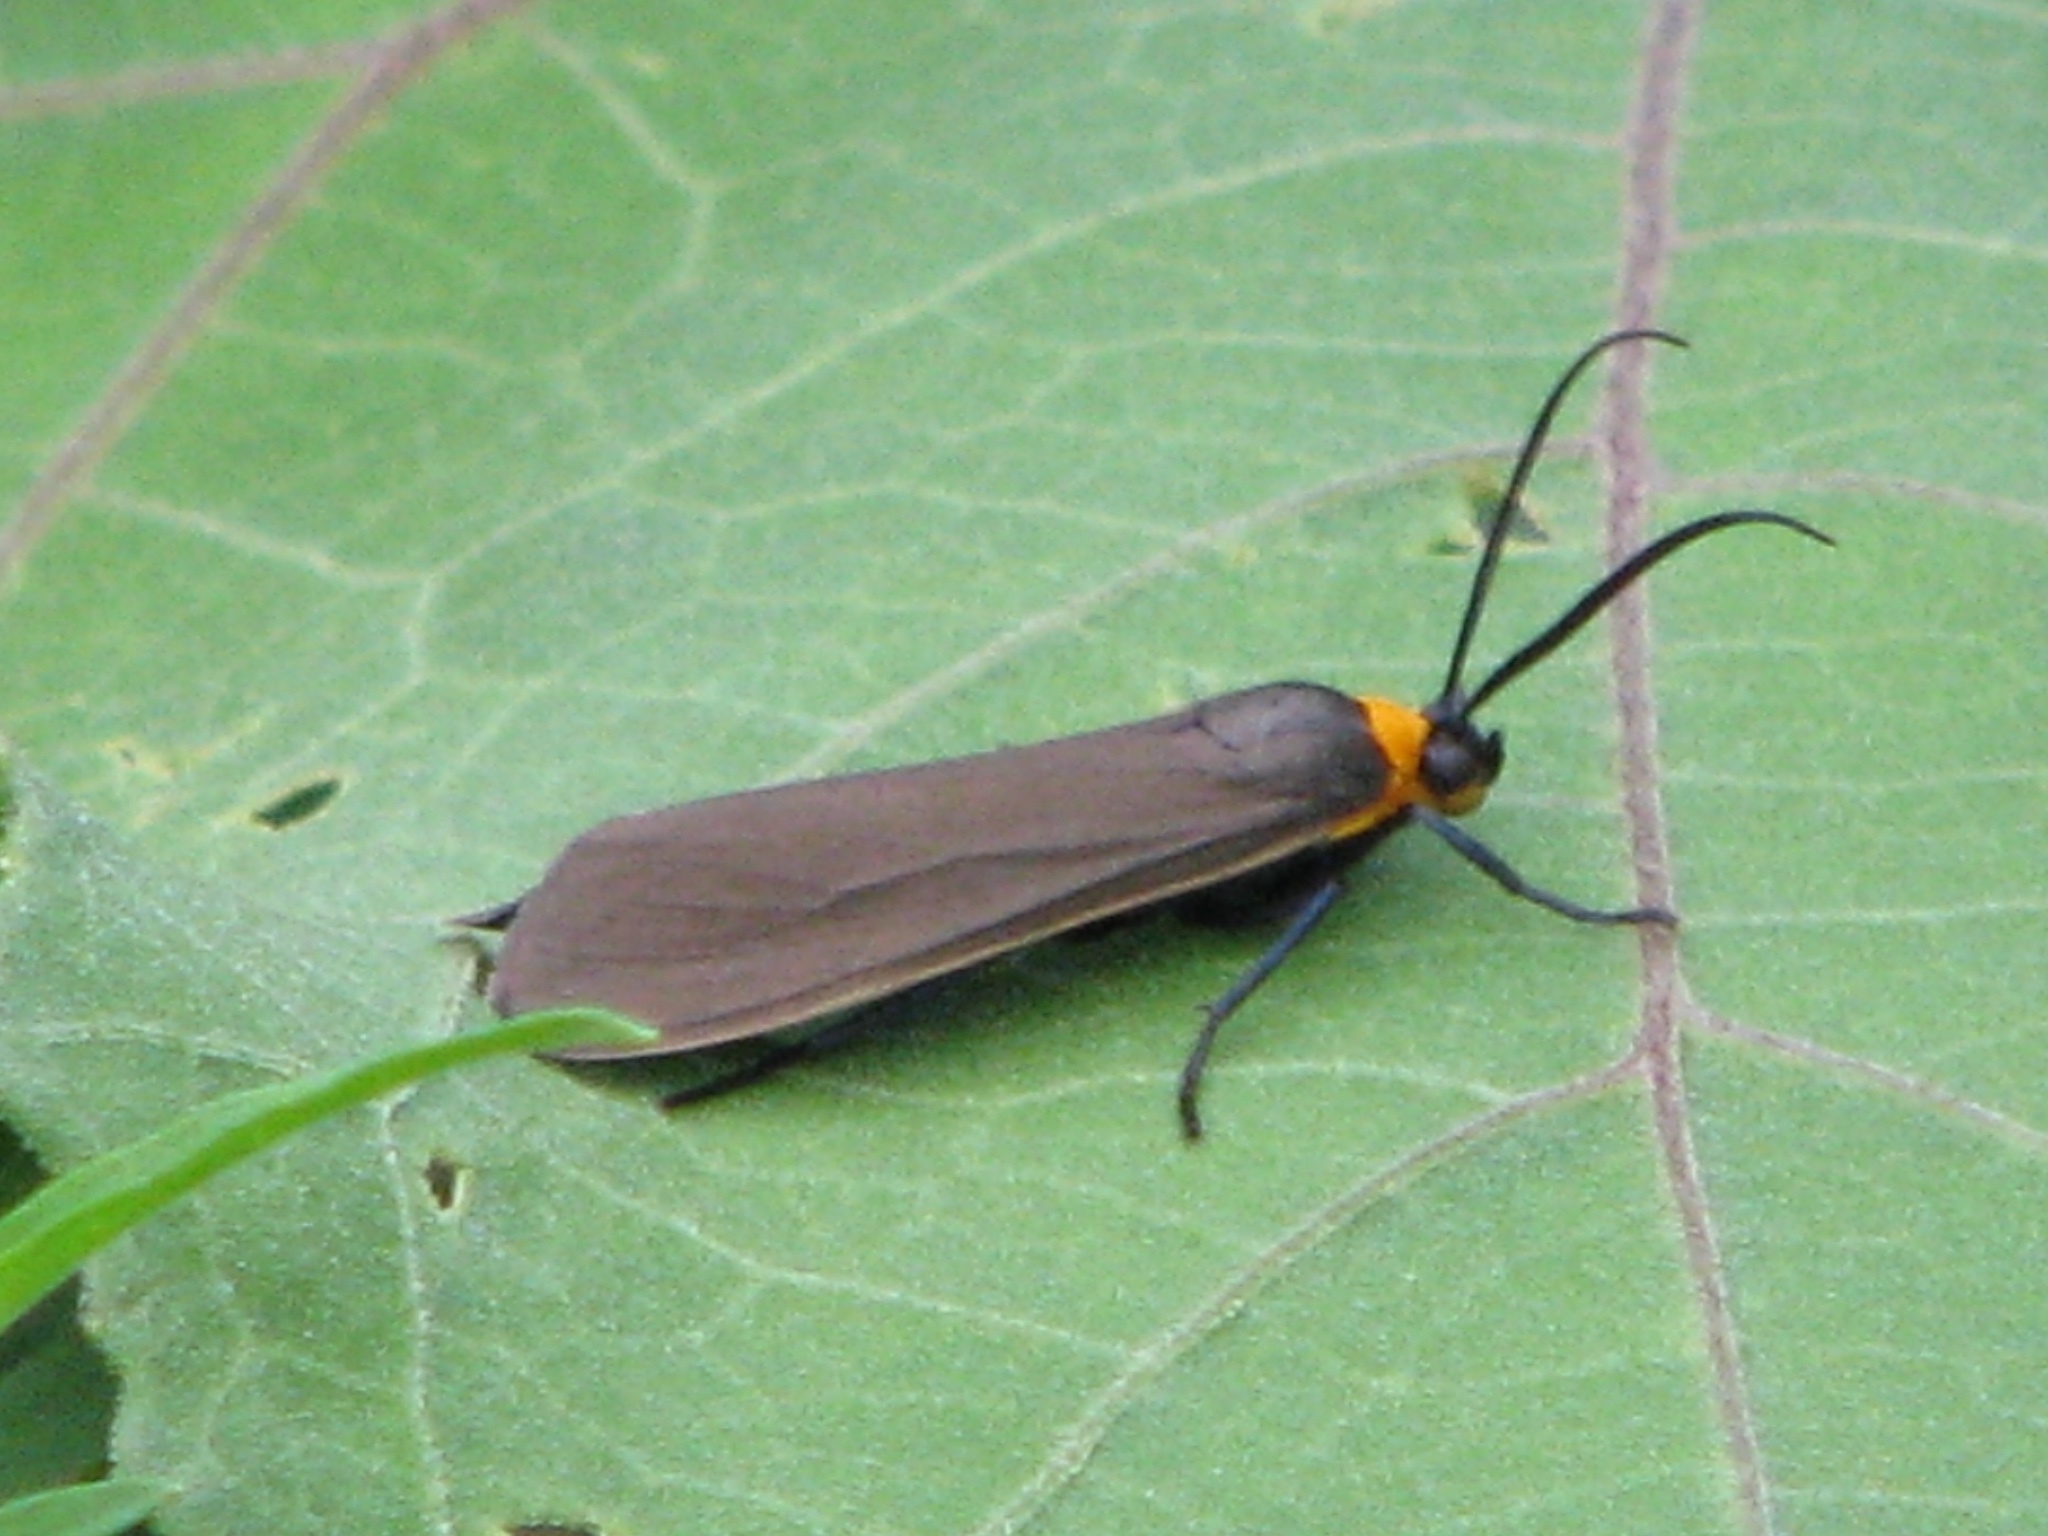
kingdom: Animalia
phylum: Arthropoda
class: Insecta
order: Lepidoptera
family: Erebidae
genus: Cisseps
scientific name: Cisseps fulvicollis
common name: Yellow-collared scape moth
